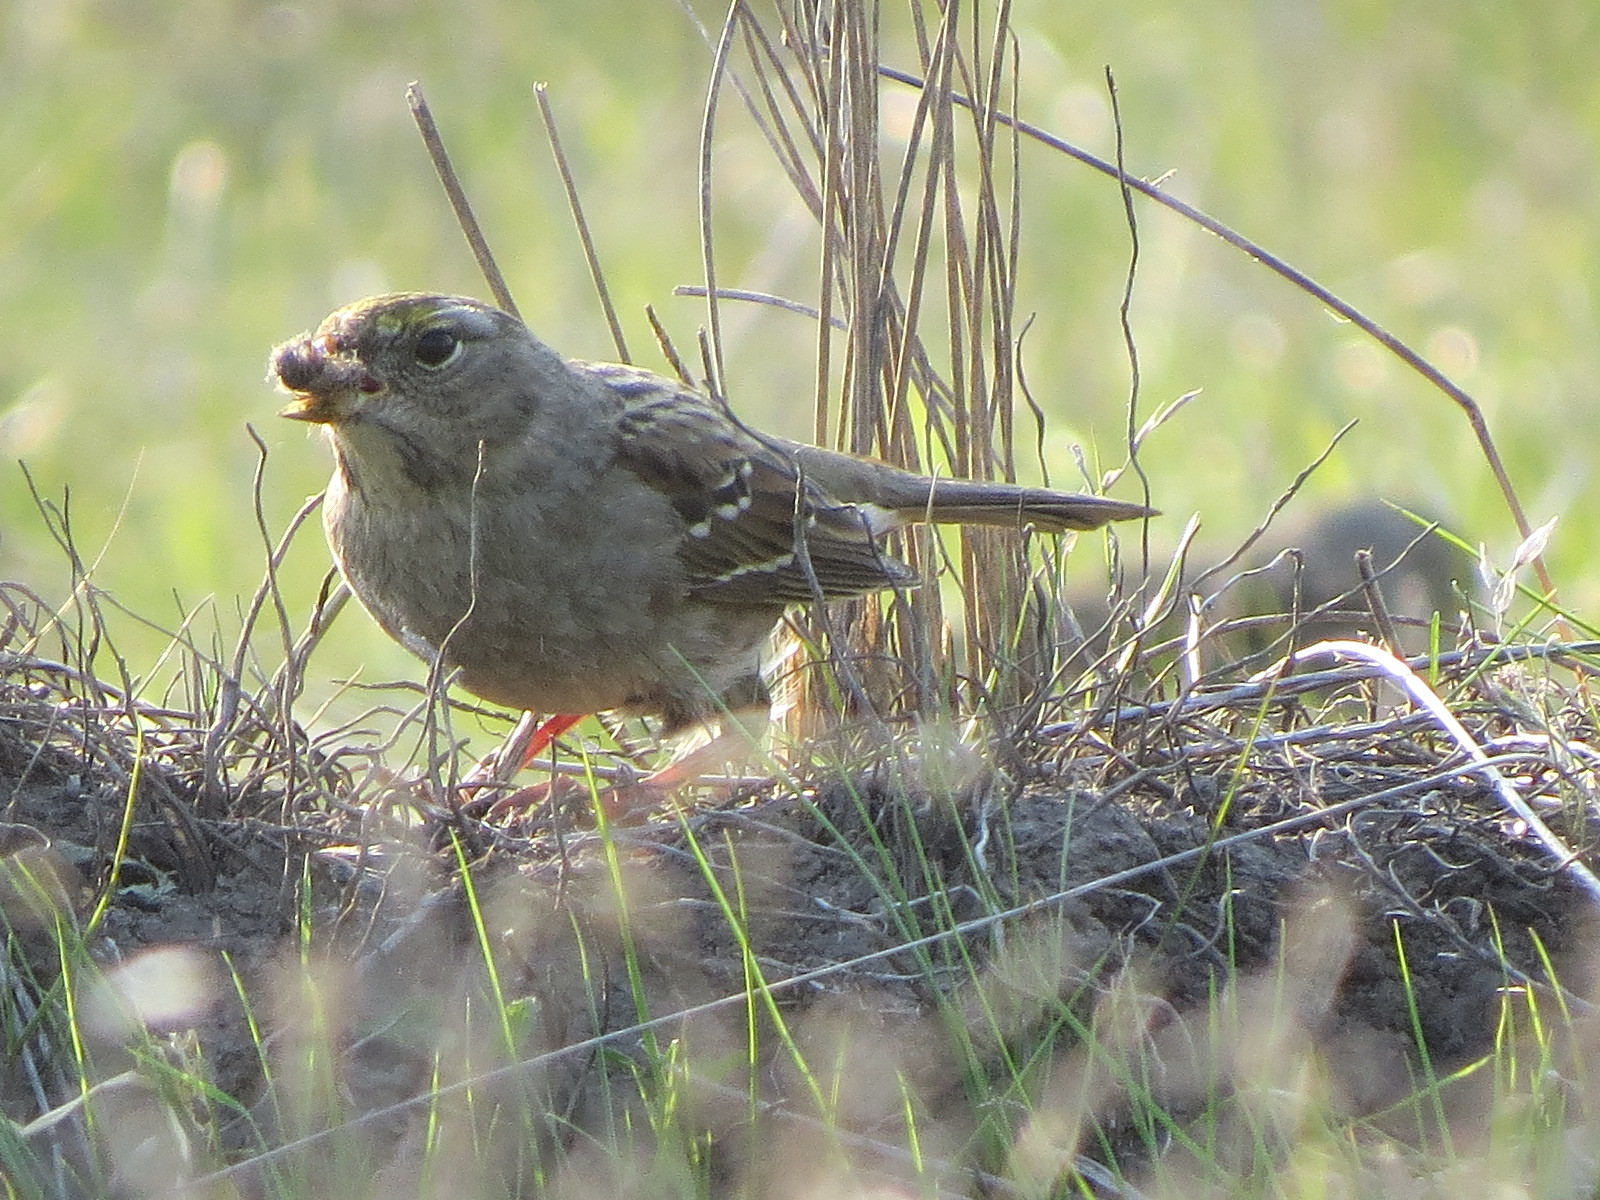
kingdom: Animalia
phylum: Chordata
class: Aves
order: Passeriformes
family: Passerellidae
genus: Zonotrichia
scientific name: Zonotrichia atricapilla
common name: Golden-crowned sparrow
